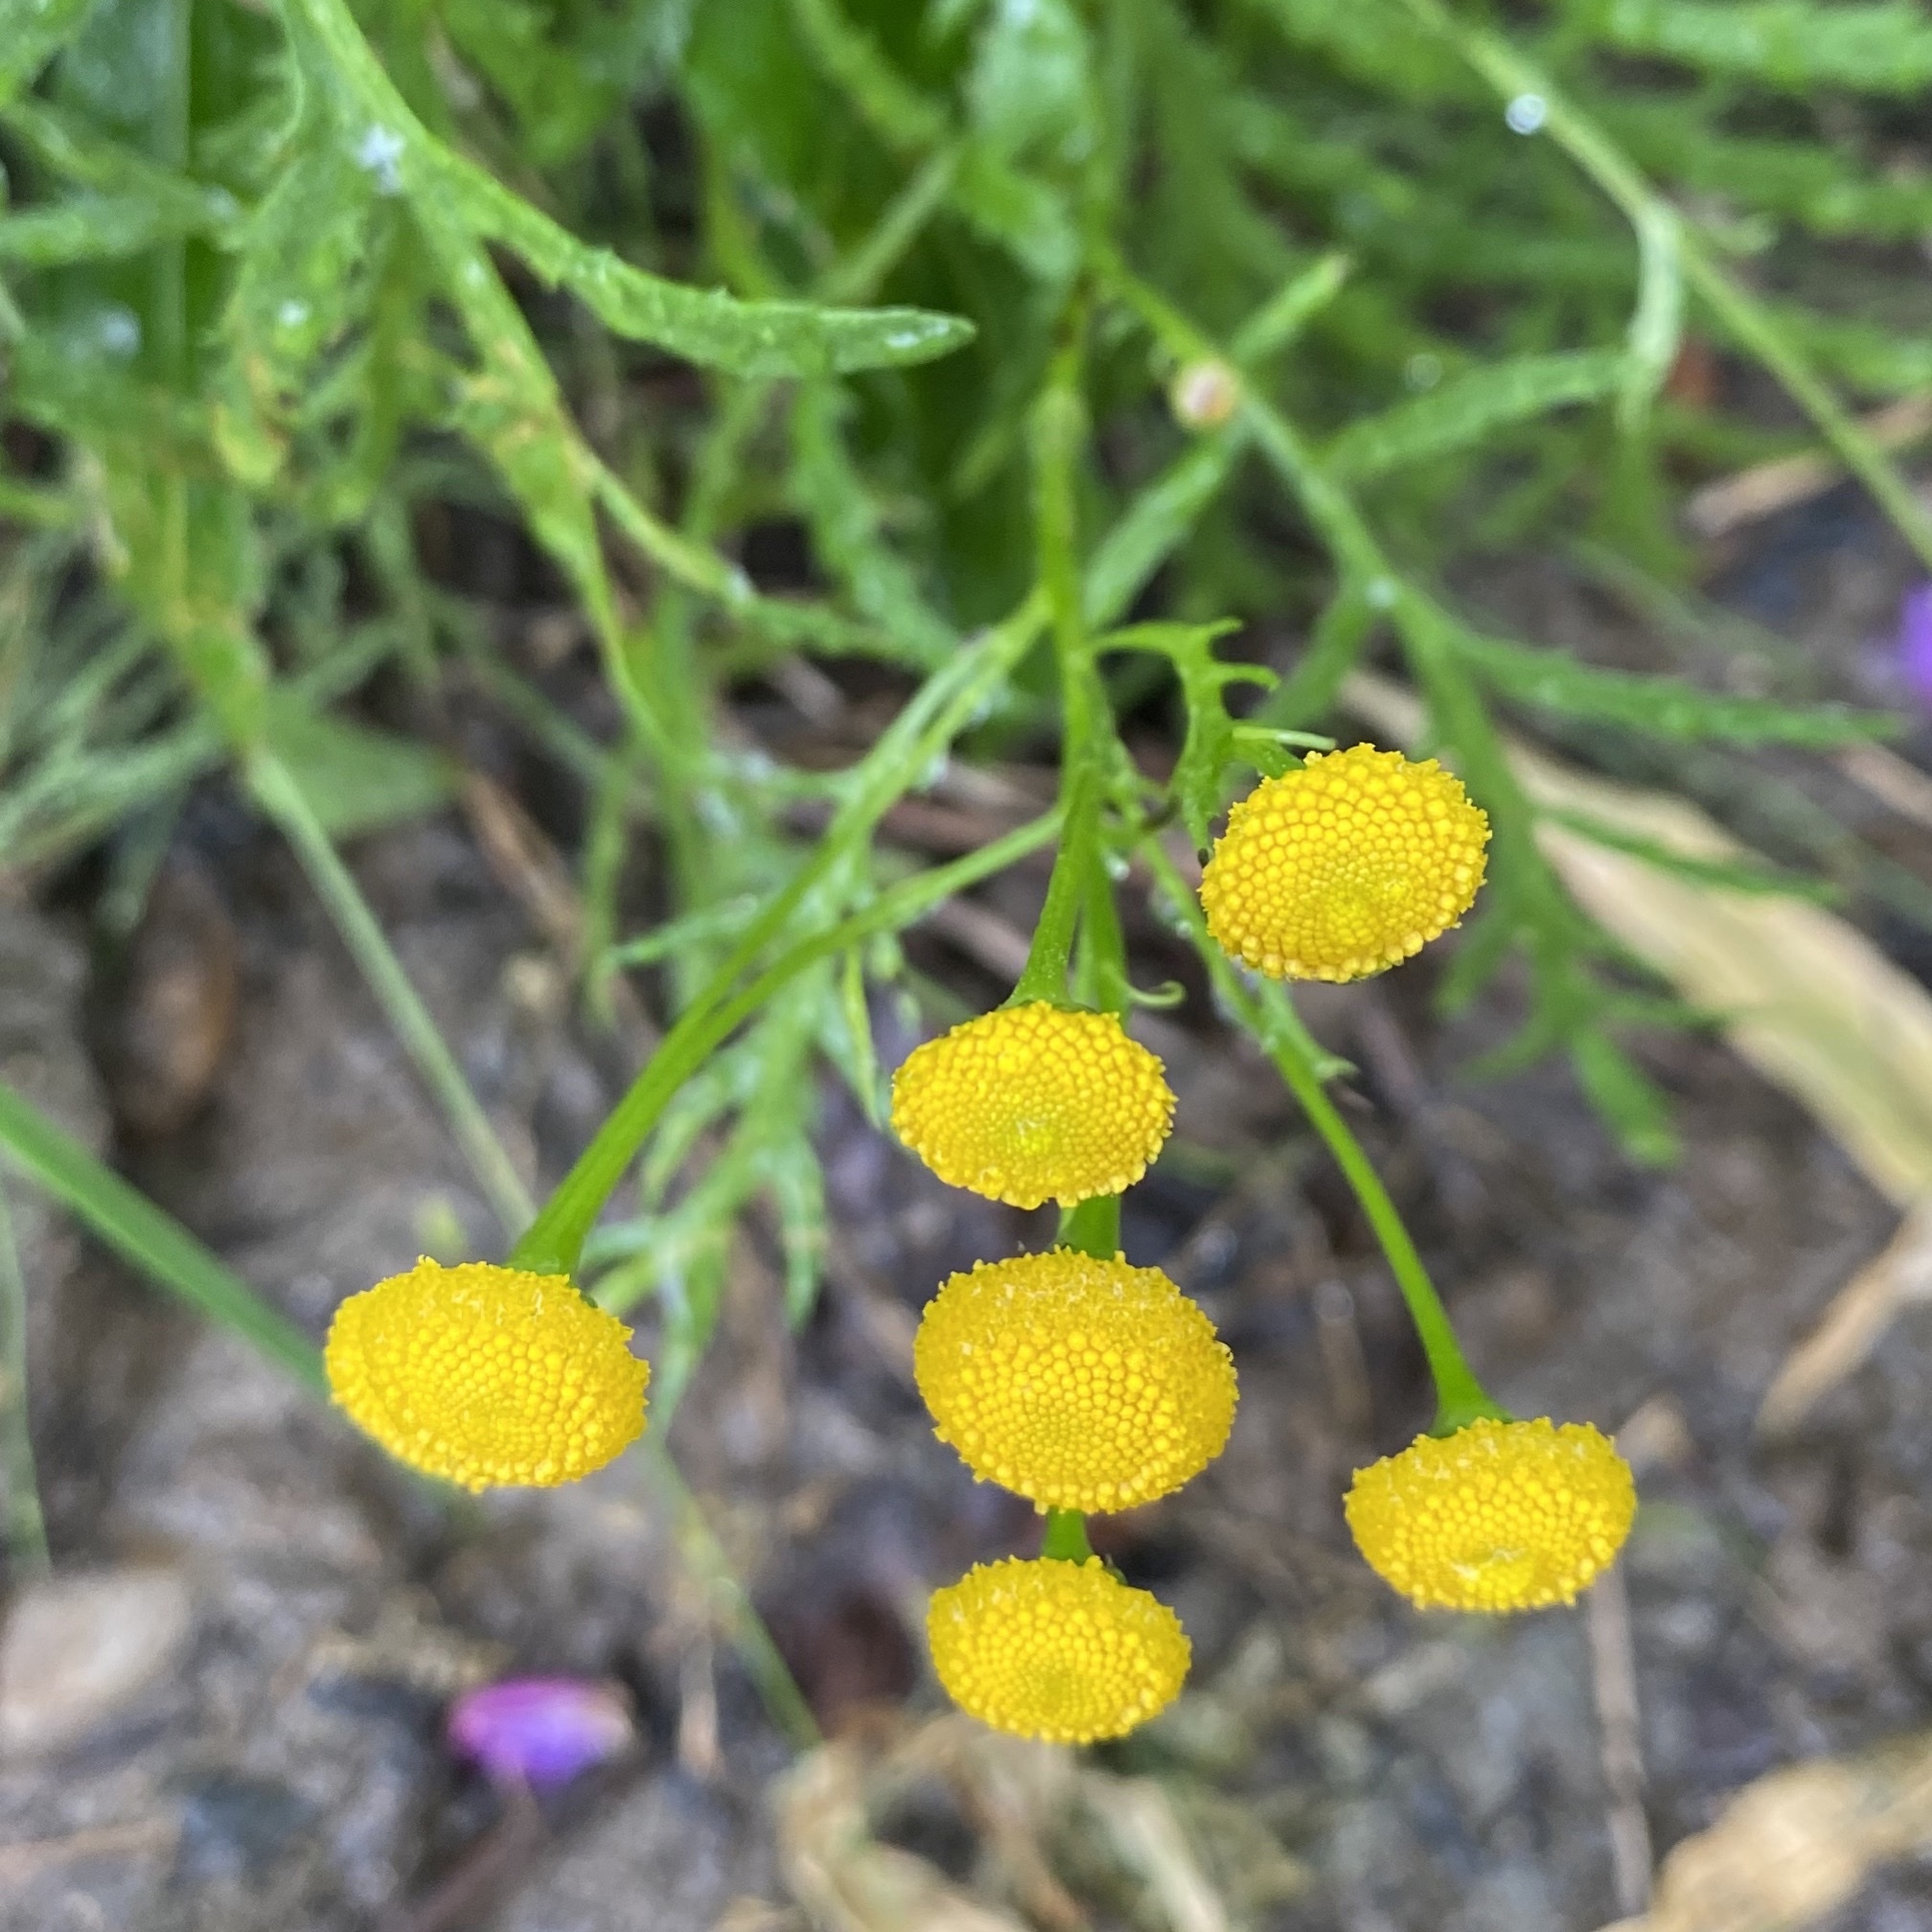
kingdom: Plantae
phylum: Tracheophyta
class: Magnoliopsida
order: Asterales
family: Asteraceae
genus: Tanacetum
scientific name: Tanacetum vulgare
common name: Common tansy
